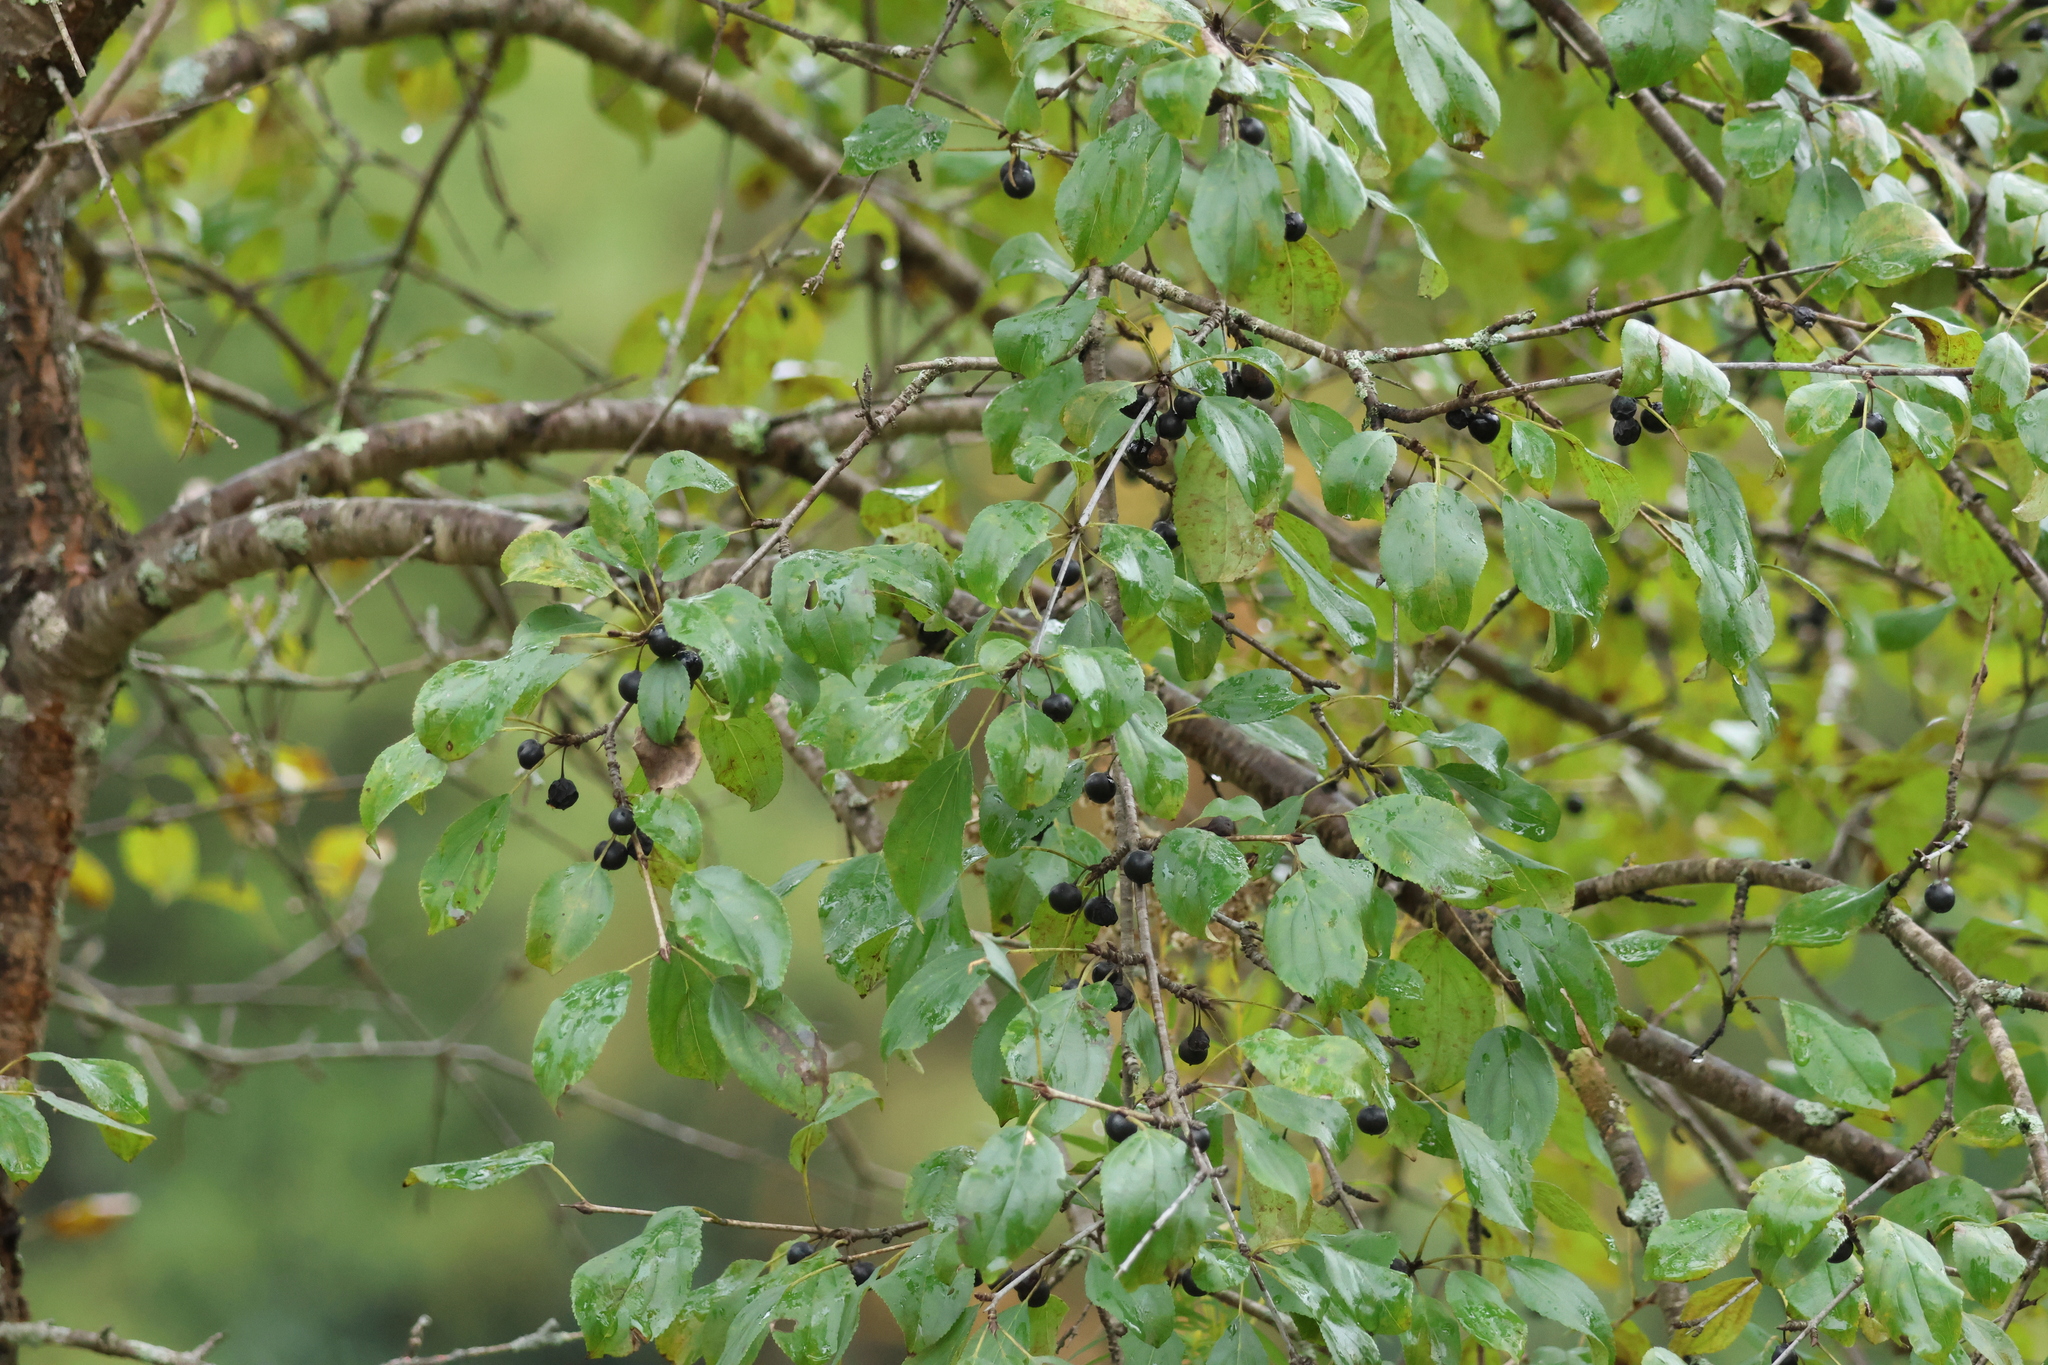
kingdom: Plantae
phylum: Tracheophyta
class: Magnoliopsida
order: Rosales
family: Rhamnaceae
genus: Rhamnus
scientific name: Rhamnus cathartica
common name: Common buckthorn
